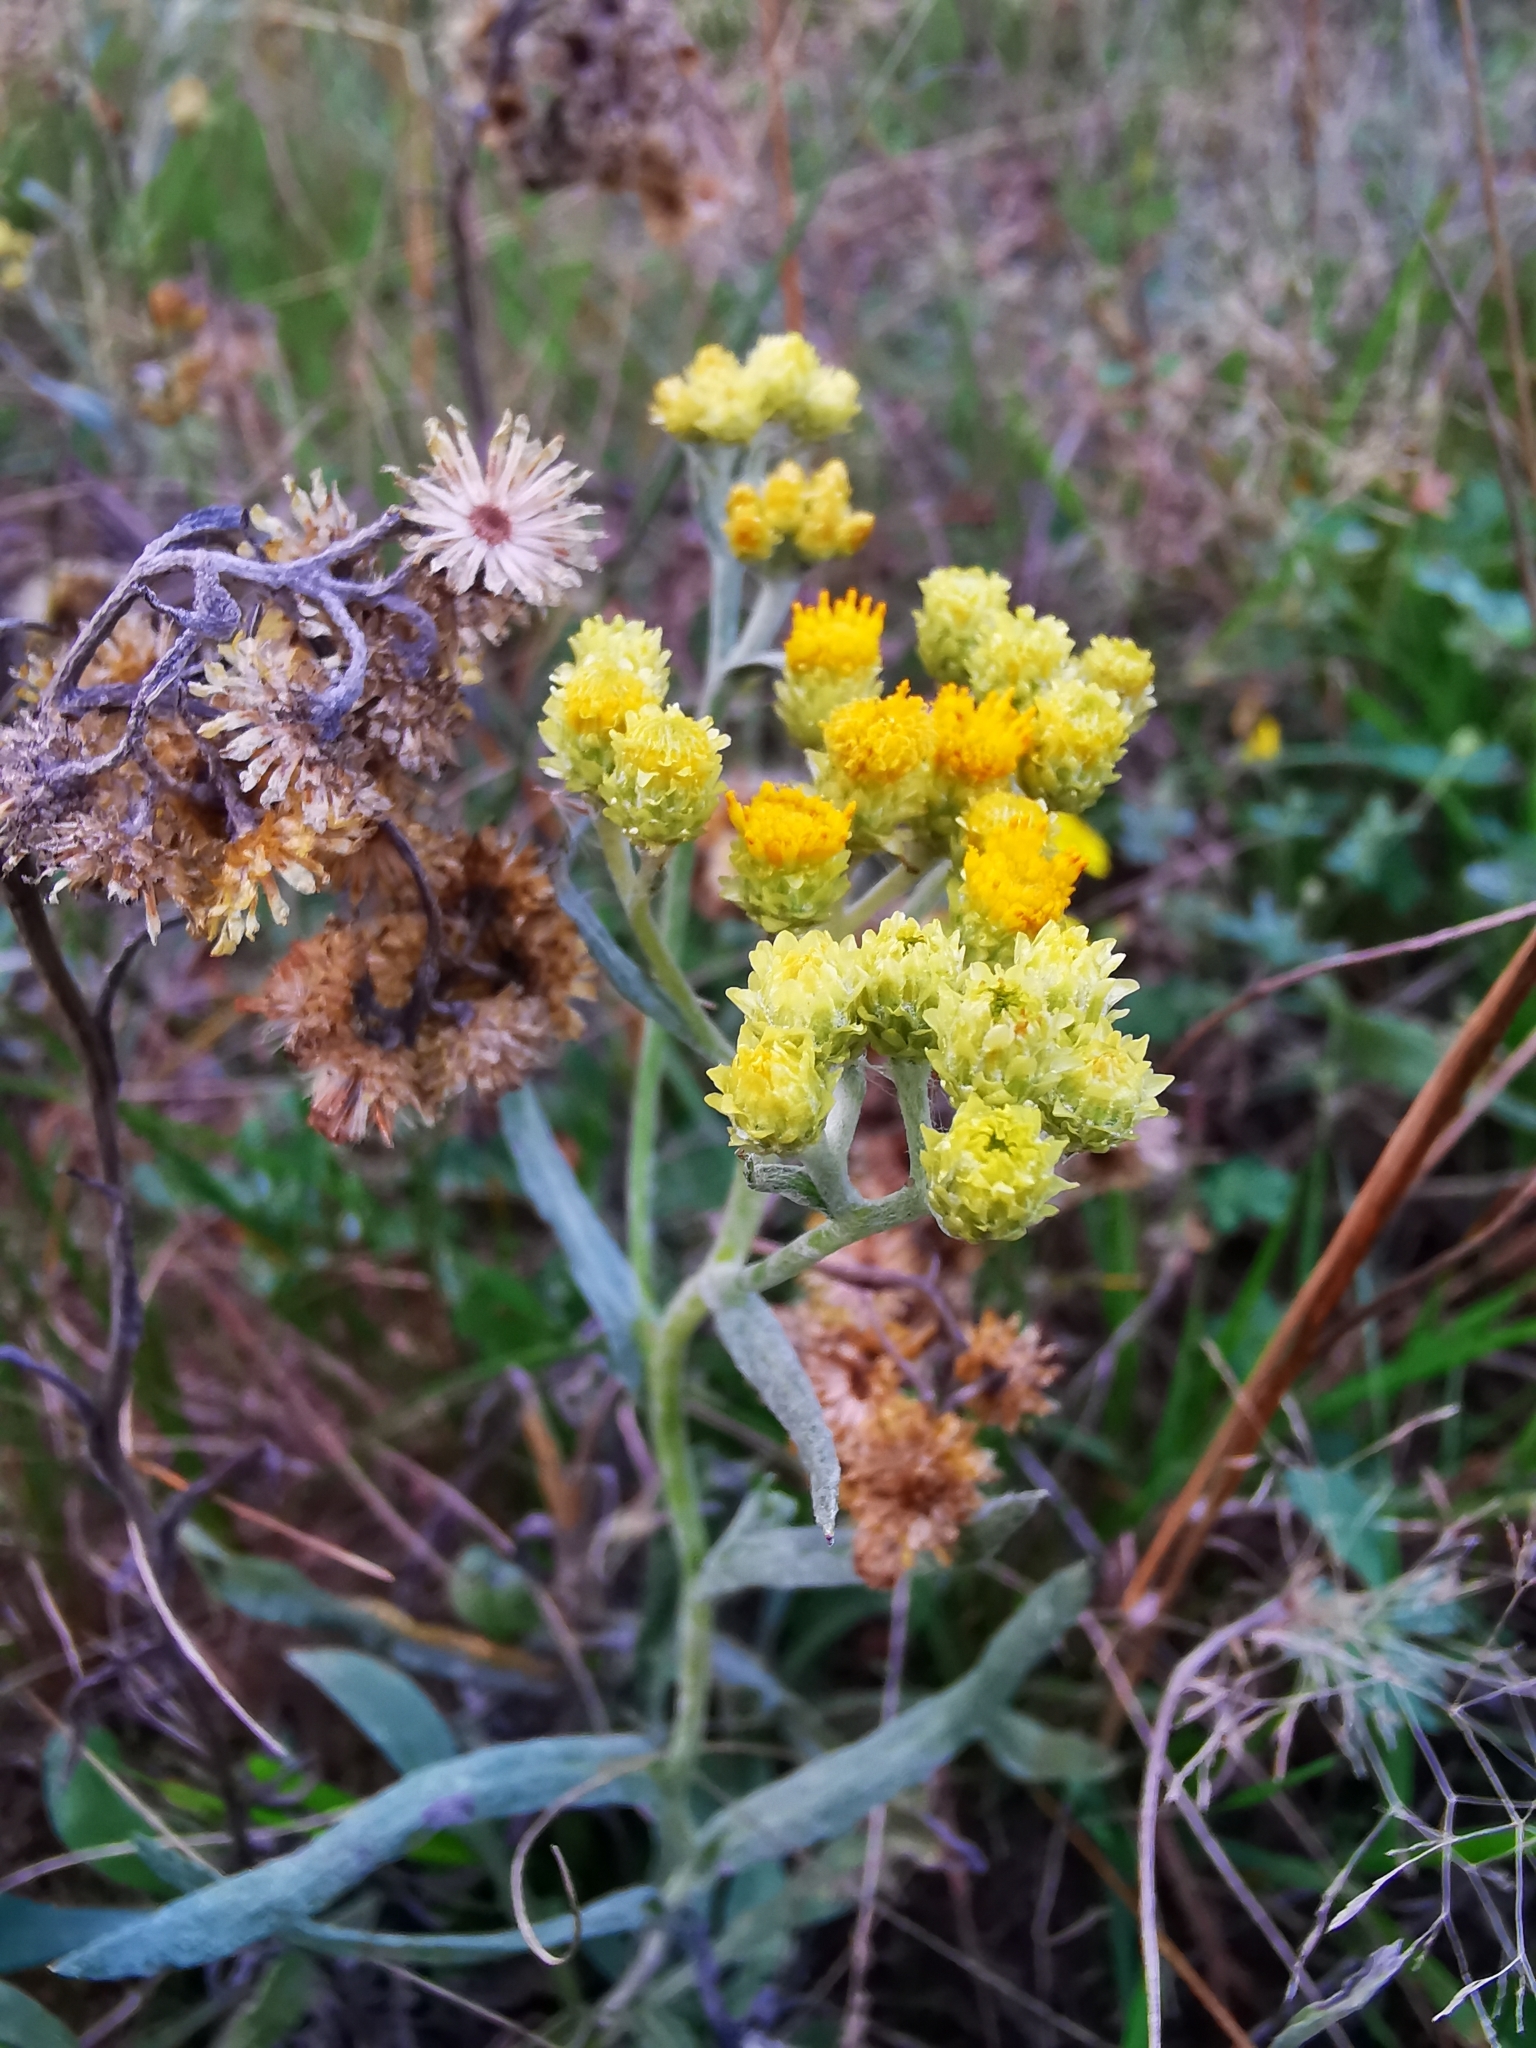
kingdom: Plantae
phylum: Tracheophyta
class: Magnoliopsida
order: Asterales
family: Asteraceae
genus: Helichrysum
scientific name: Helichrysum arenarium
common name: Strawflower
